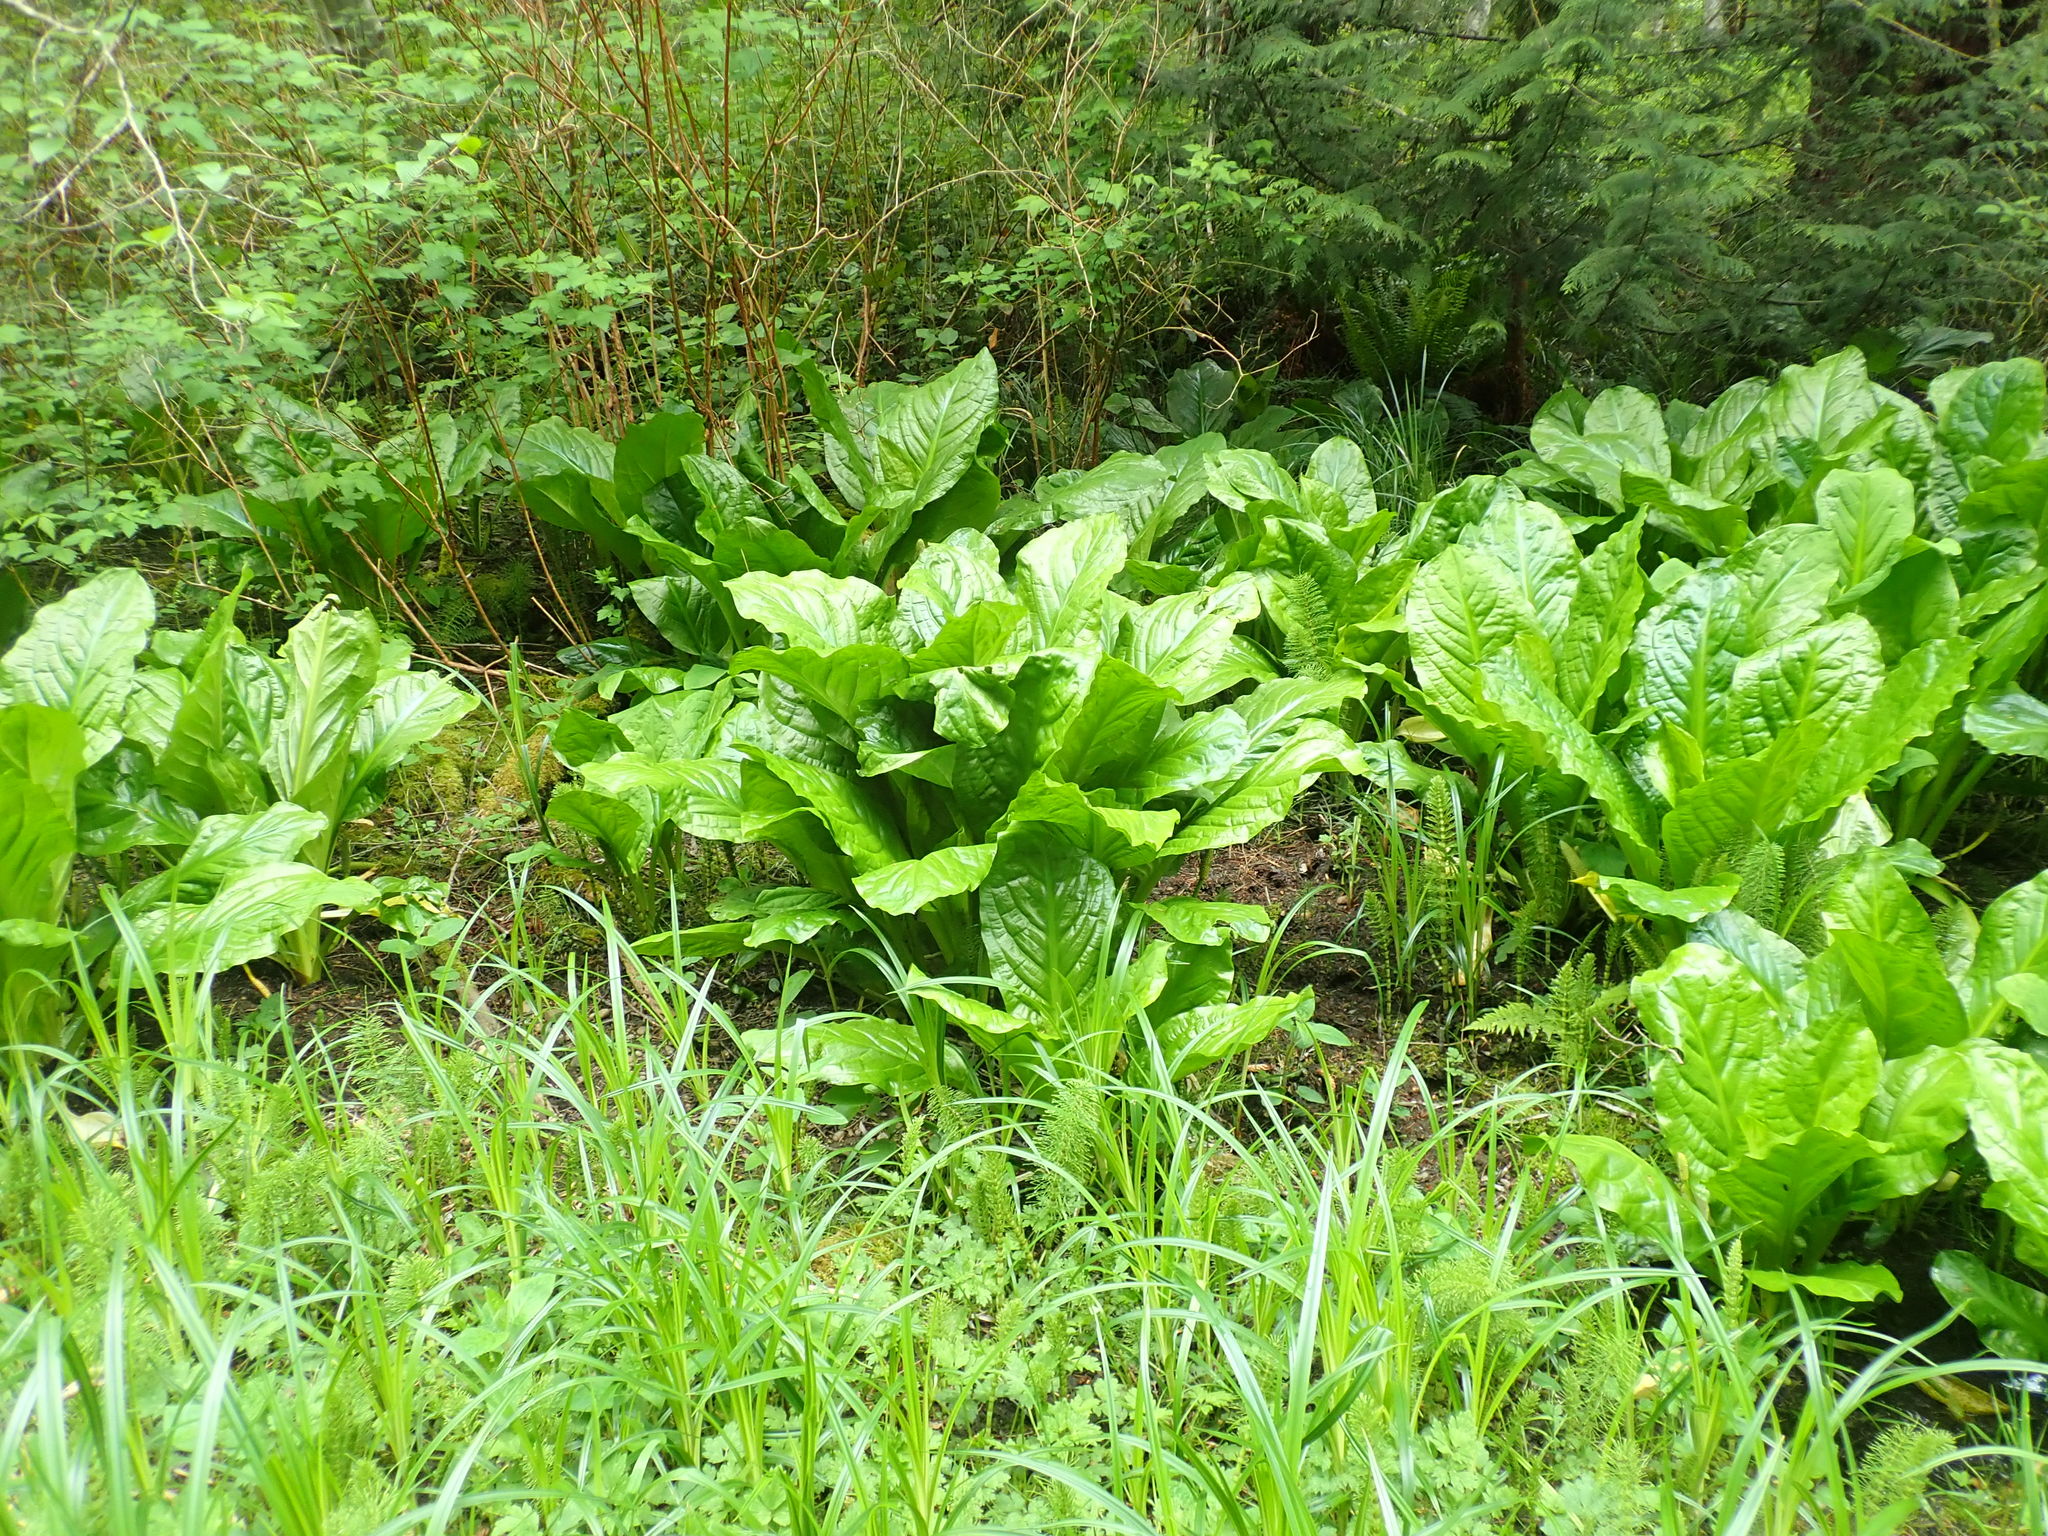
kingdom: Plantae
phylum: Tracheophyta
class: Liliopsida
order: Alismatales
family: Araceae
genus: Lysichiton
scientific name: Lysichiton americanus
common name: American skunk cabbage
